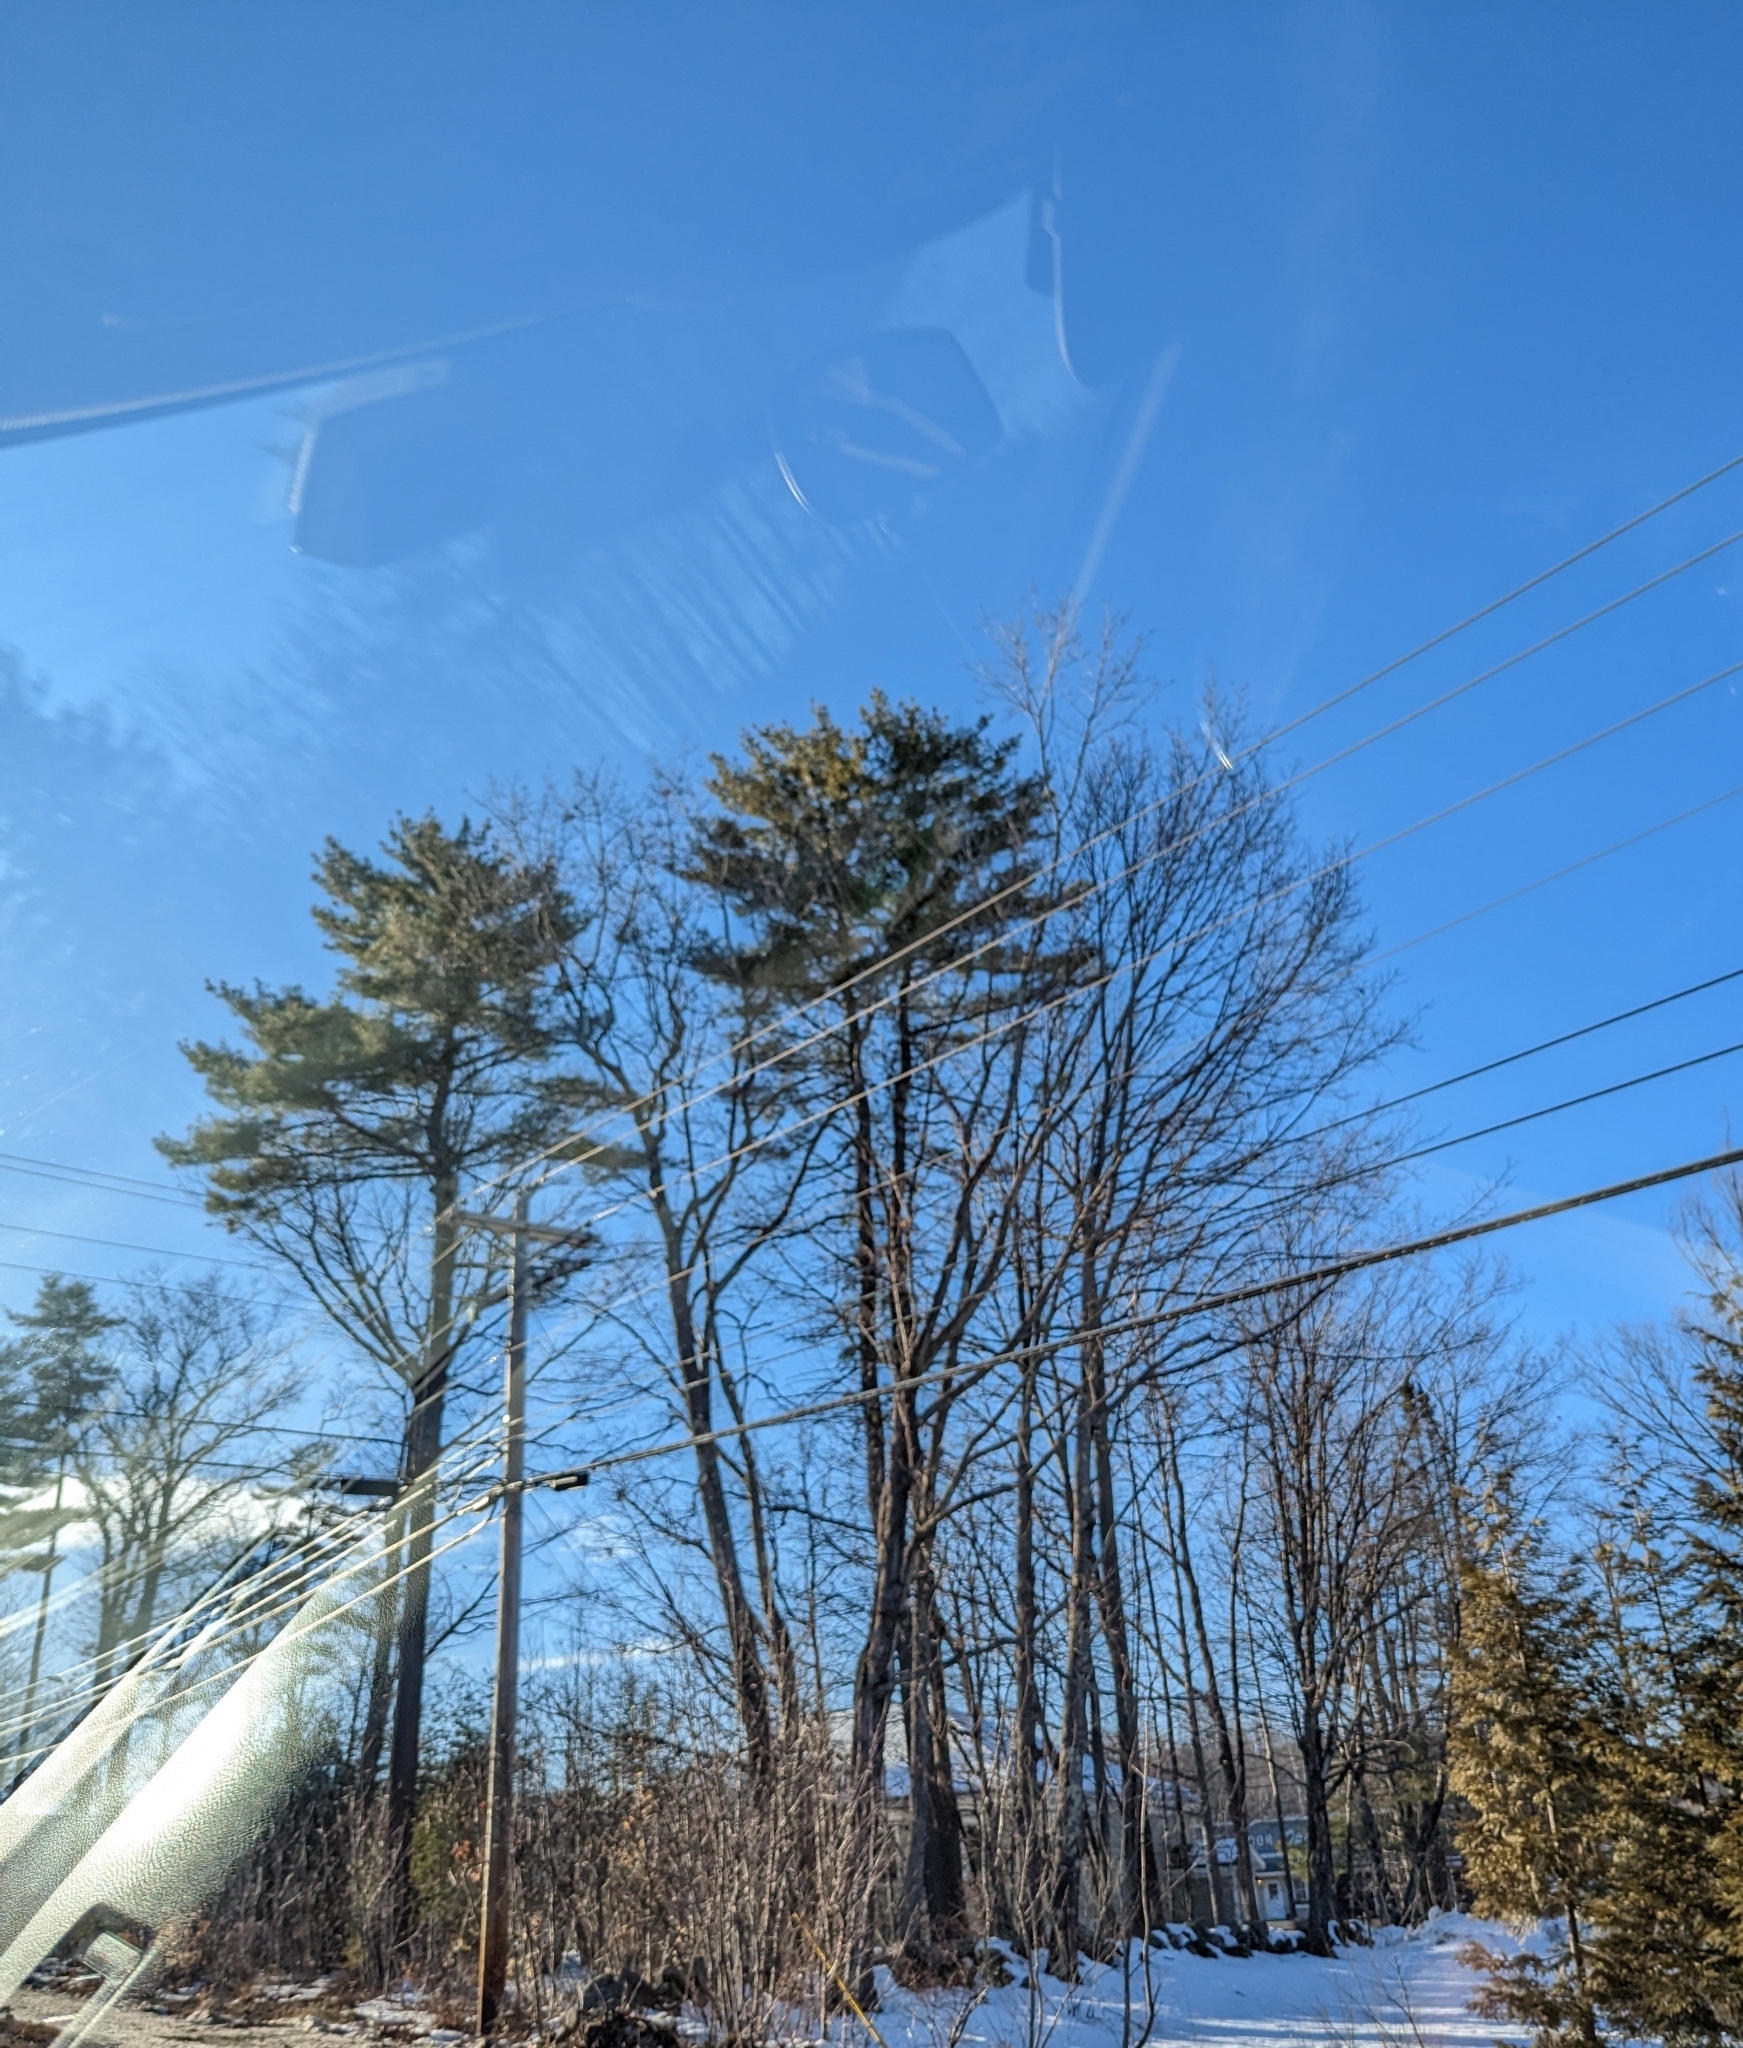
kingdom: Plantae
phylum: Tracheophyta
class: Pinopsida
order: Pinales
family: Pinaceae
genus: Pinus
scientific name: Pinus strobus
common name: Weymouth pine
